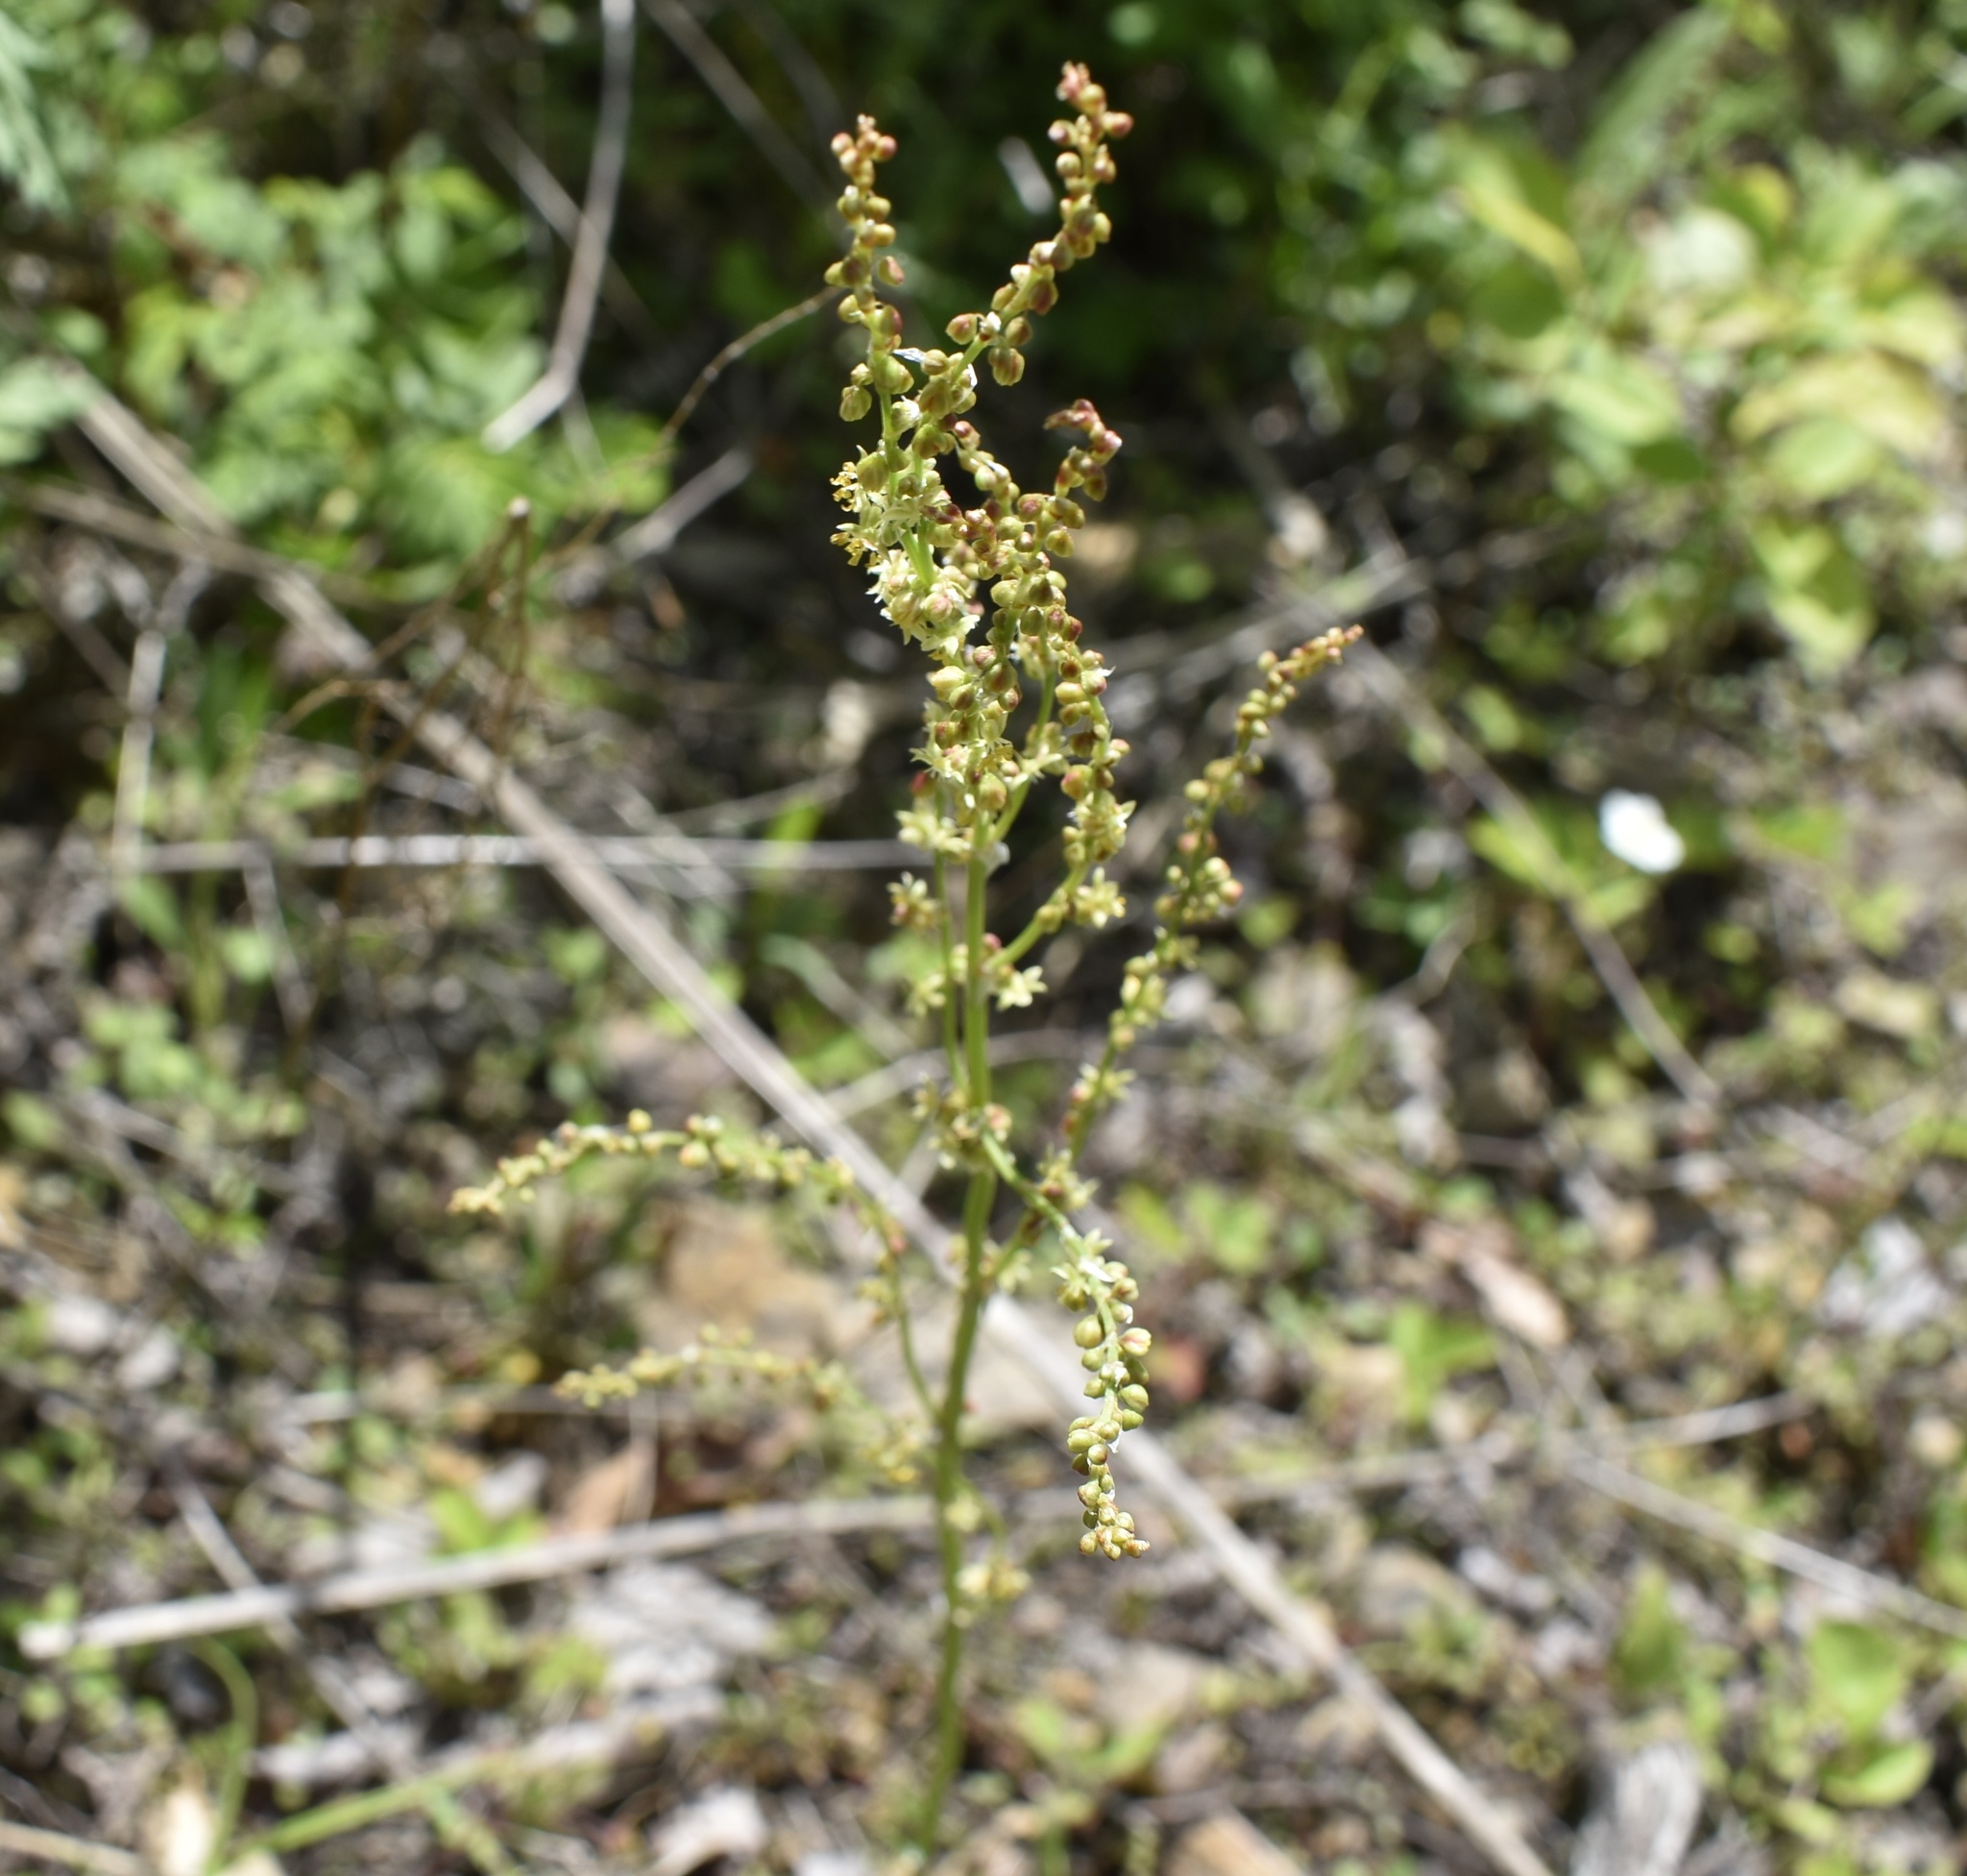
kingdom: Plantae
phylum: Tracheophyta
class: Magnoliopsida
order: Caryophyllales
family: Polygonaceae
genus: Rumex
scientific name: Rumex acetosella
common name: Common sheep sorrel
